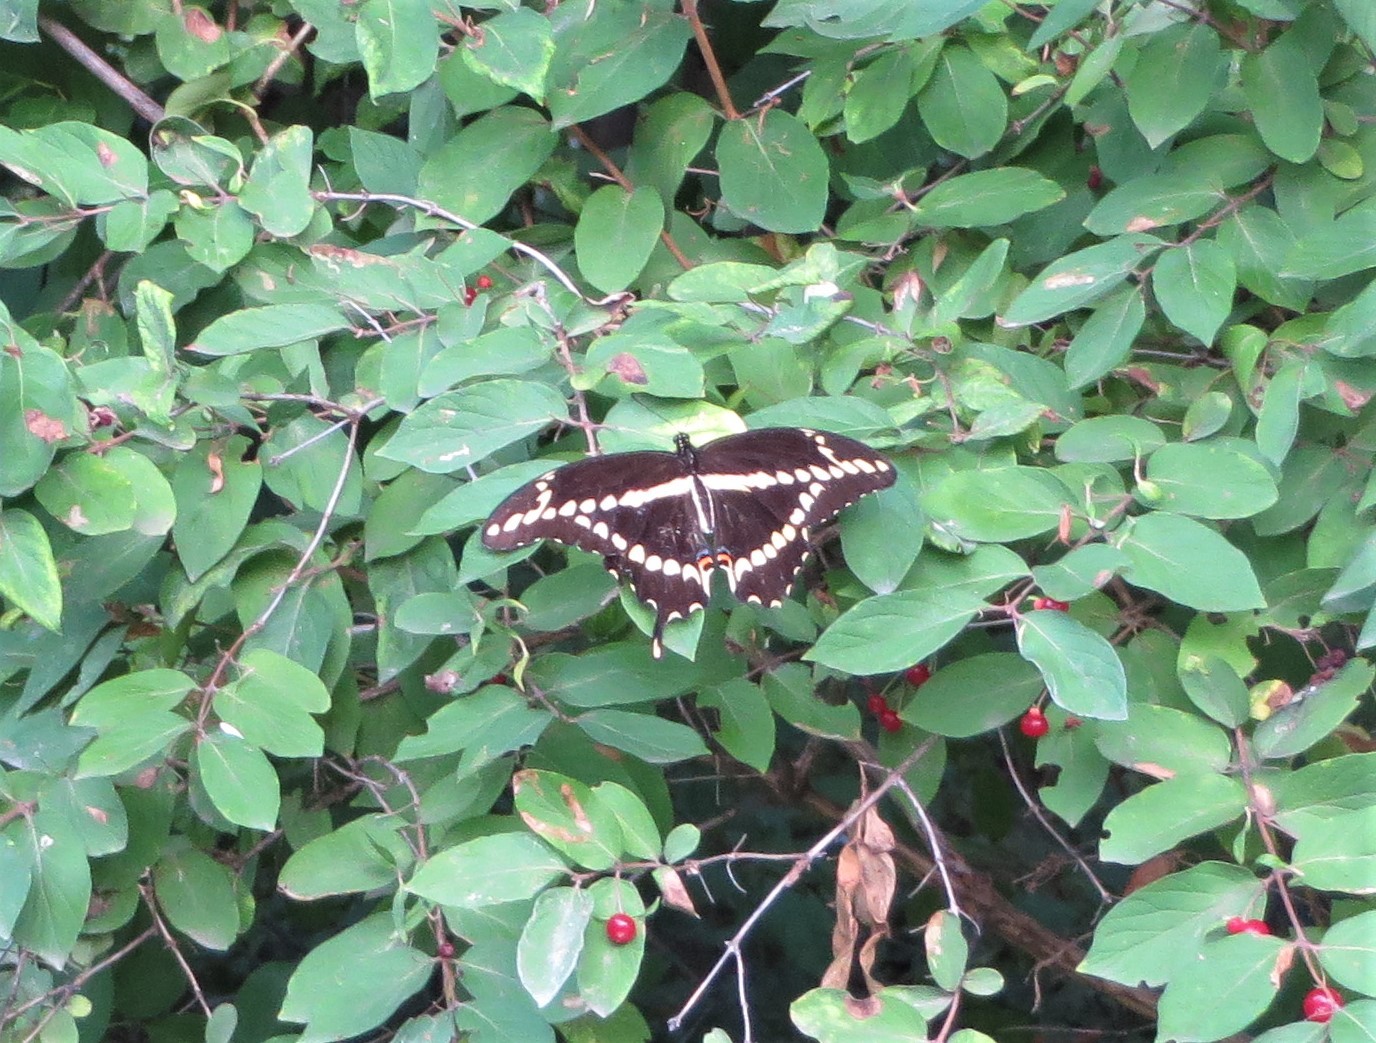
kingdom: Animalia
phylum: Arthropoda
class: Insecta
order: Lepidoptera
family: Papilionidae
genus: Papilio
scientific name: Papilio cresphontes
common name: Giant swallowtail
